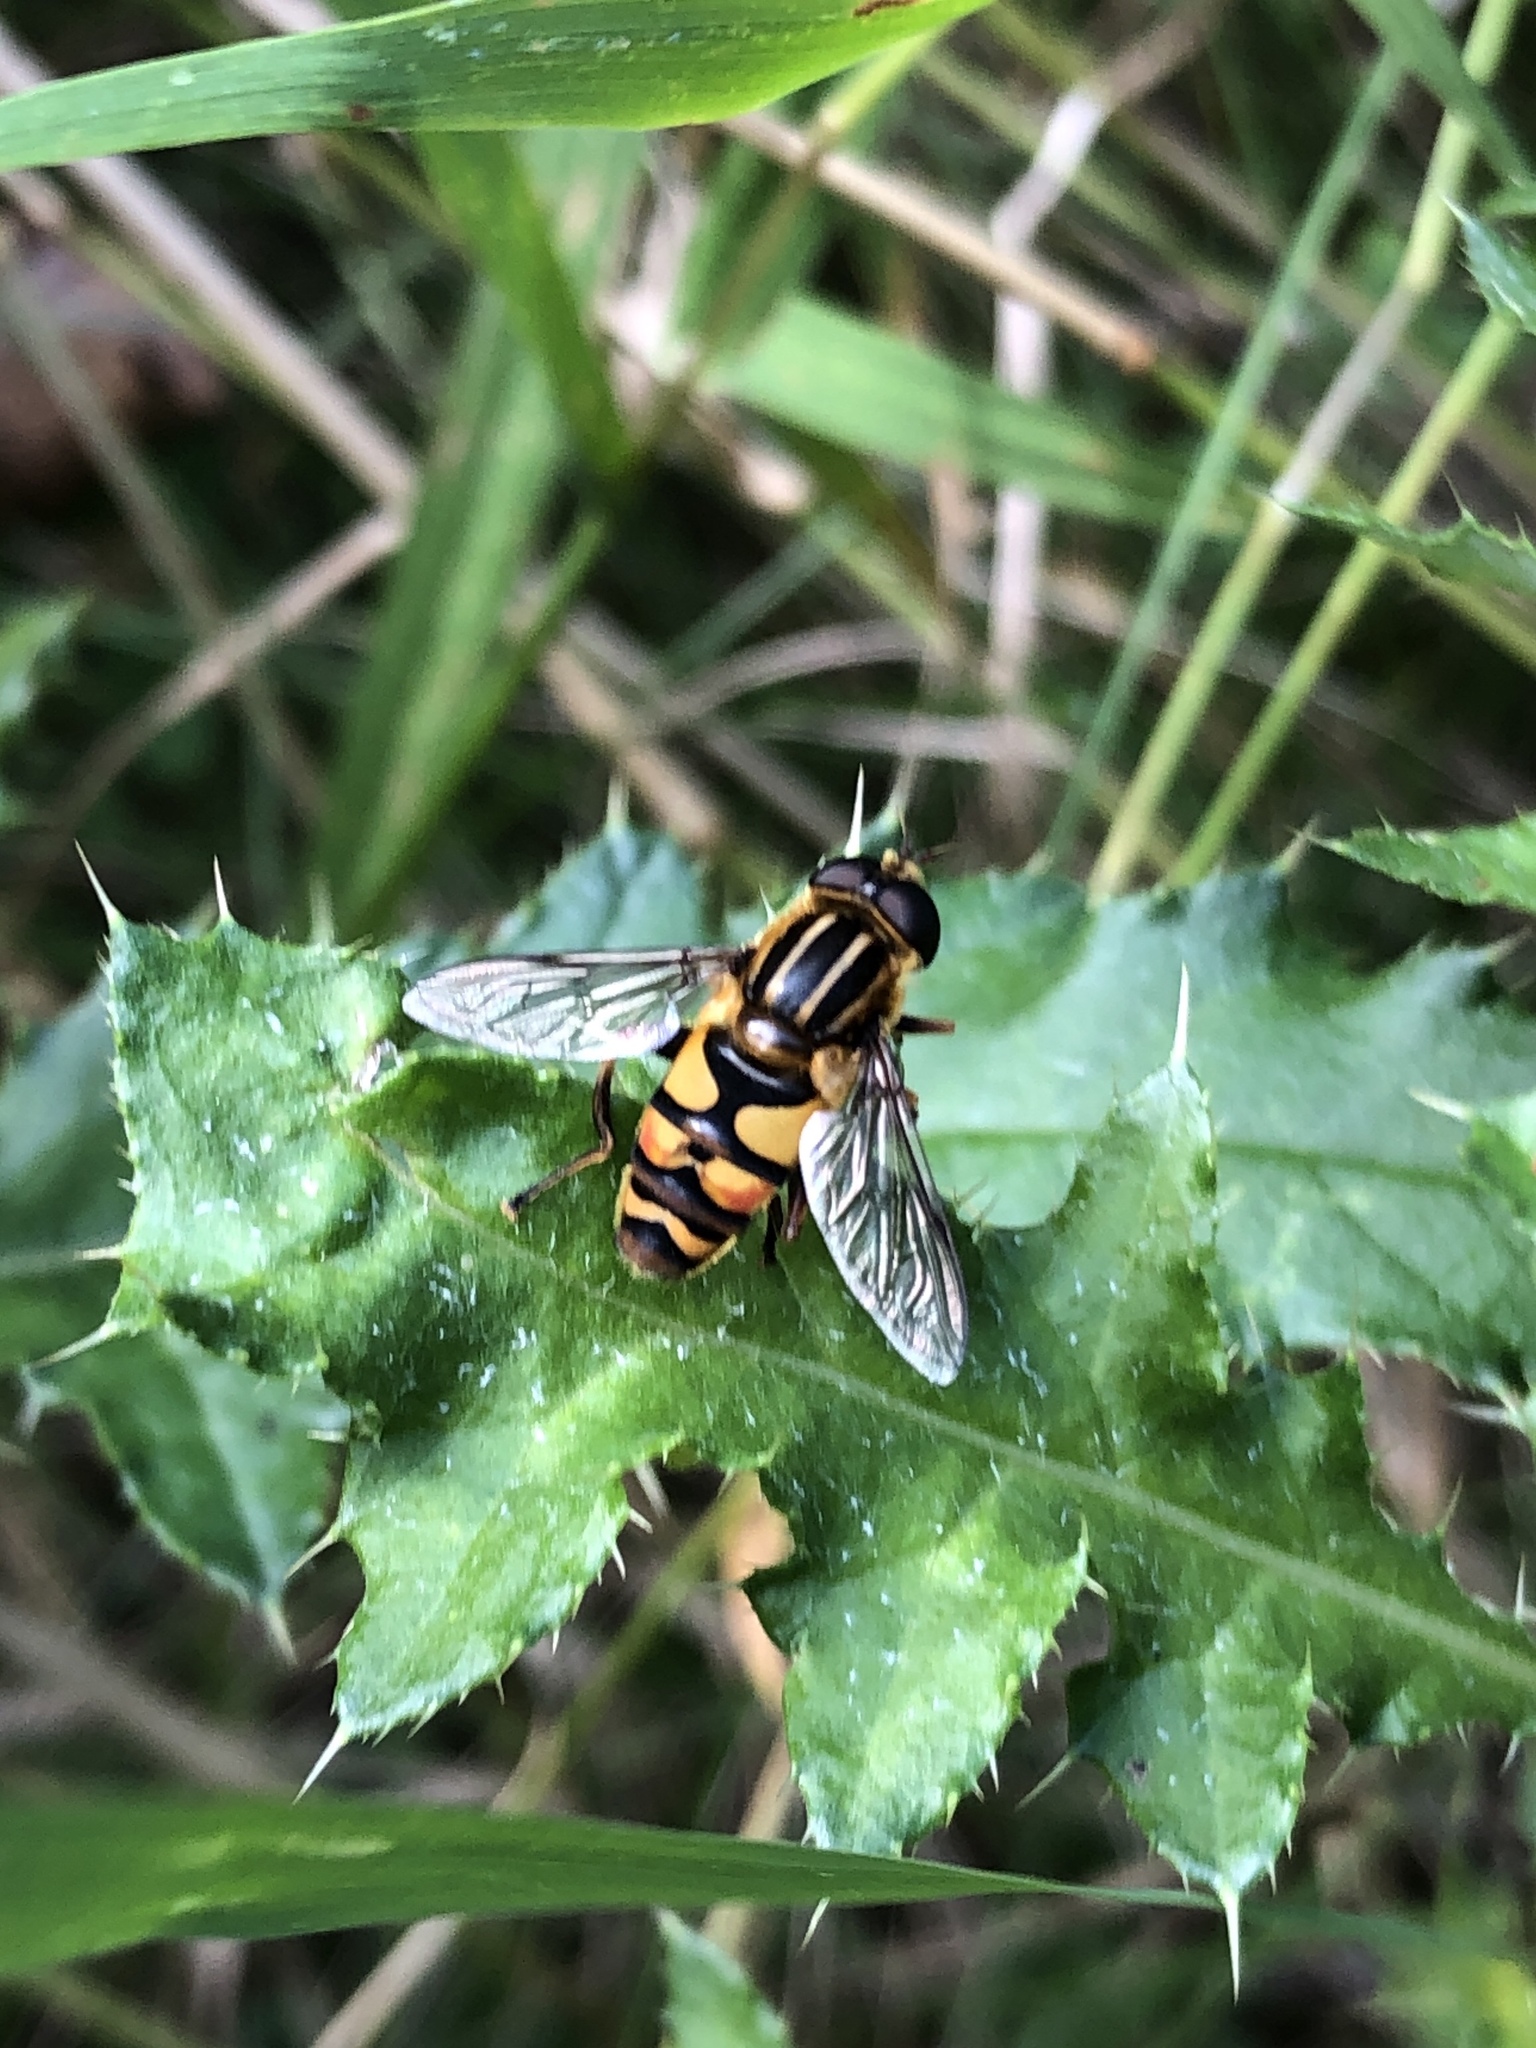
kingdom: Animalia
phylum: Arthropoda
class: Insecta
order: Diptera
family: Syrphidae
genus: Helophilus
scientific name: Helophilus fasciatus
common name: Narrow-headed marsh fly
